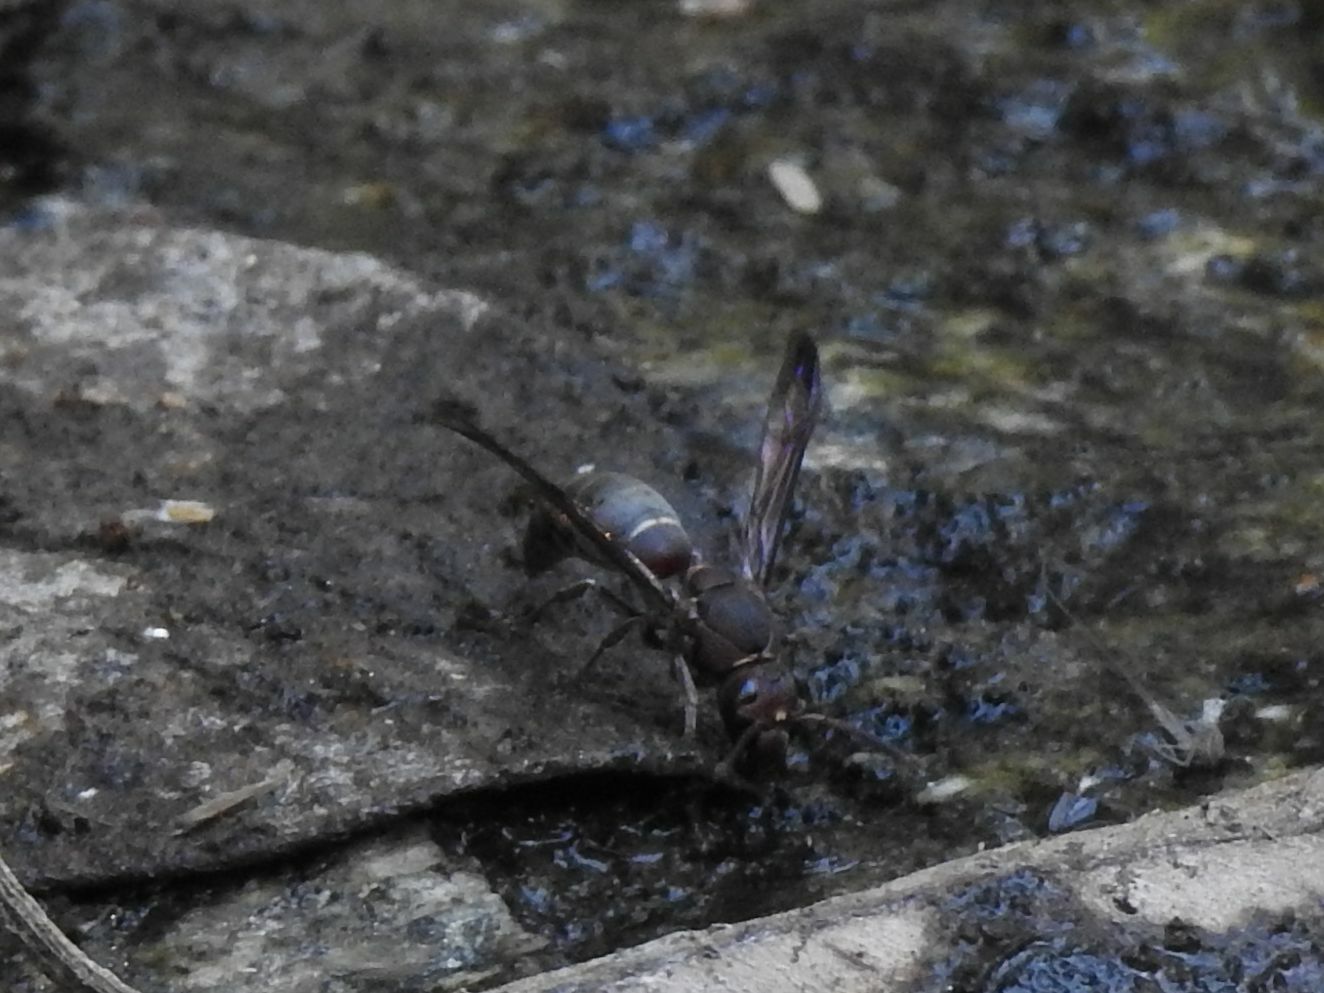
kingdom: Animalia
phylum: Arthropoda
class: Insecta
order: Hymenoptera
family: Eumenidae
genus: Antodynerus
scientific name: Antodynerus
